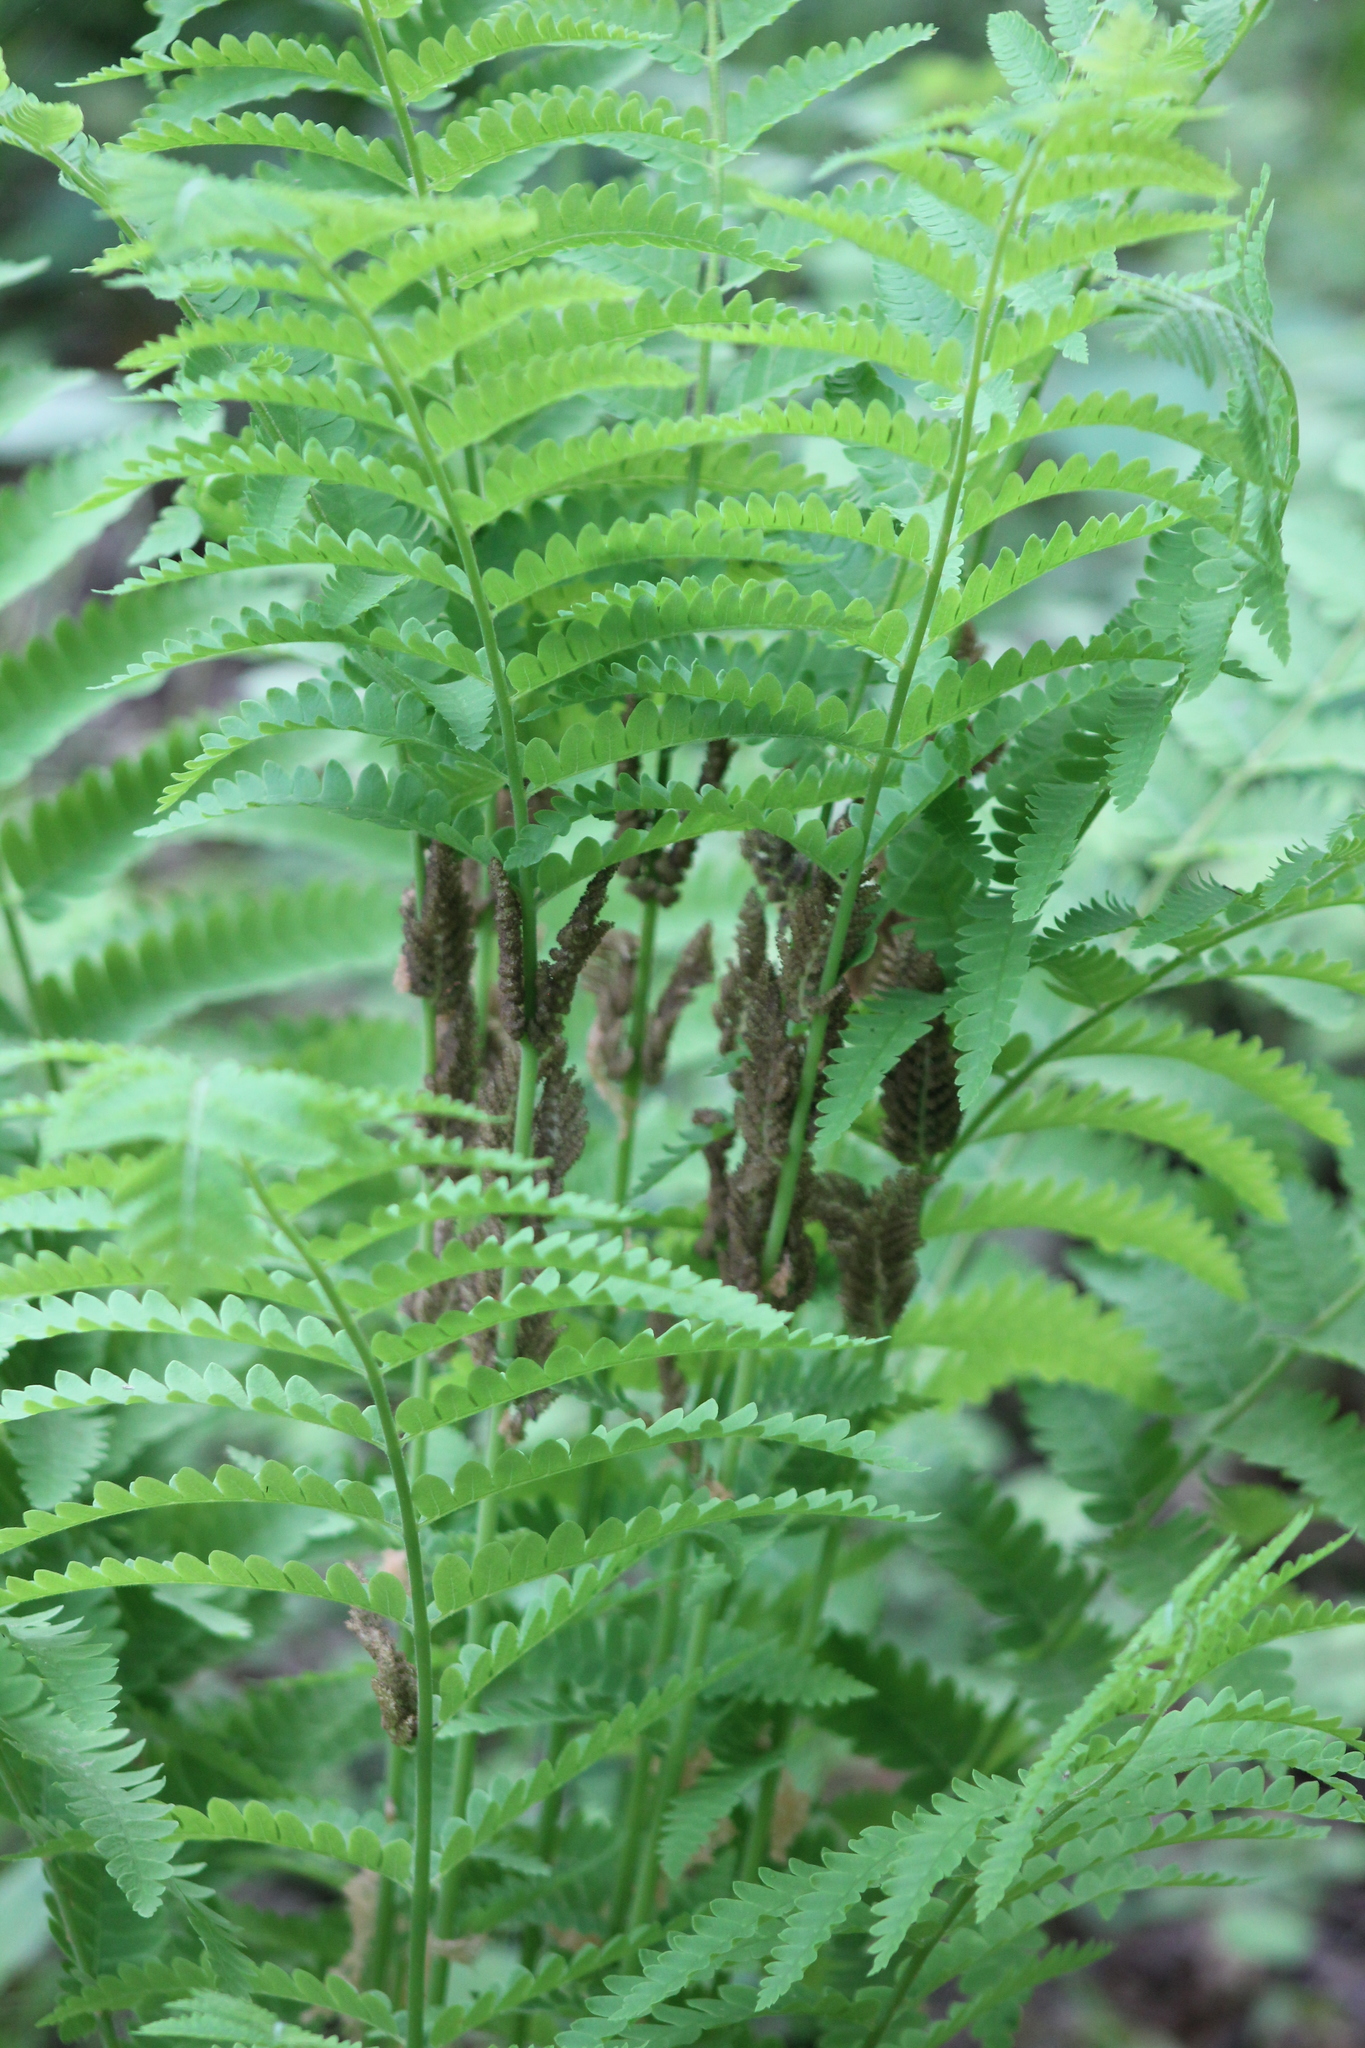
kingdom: Plantae
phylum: Tracheophyta
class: Polypodiopsida
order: Osmundales
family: Osmundaceae
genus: Claytosmunda
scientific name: Claytosmunda claytoniana
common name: Clayton's fern
